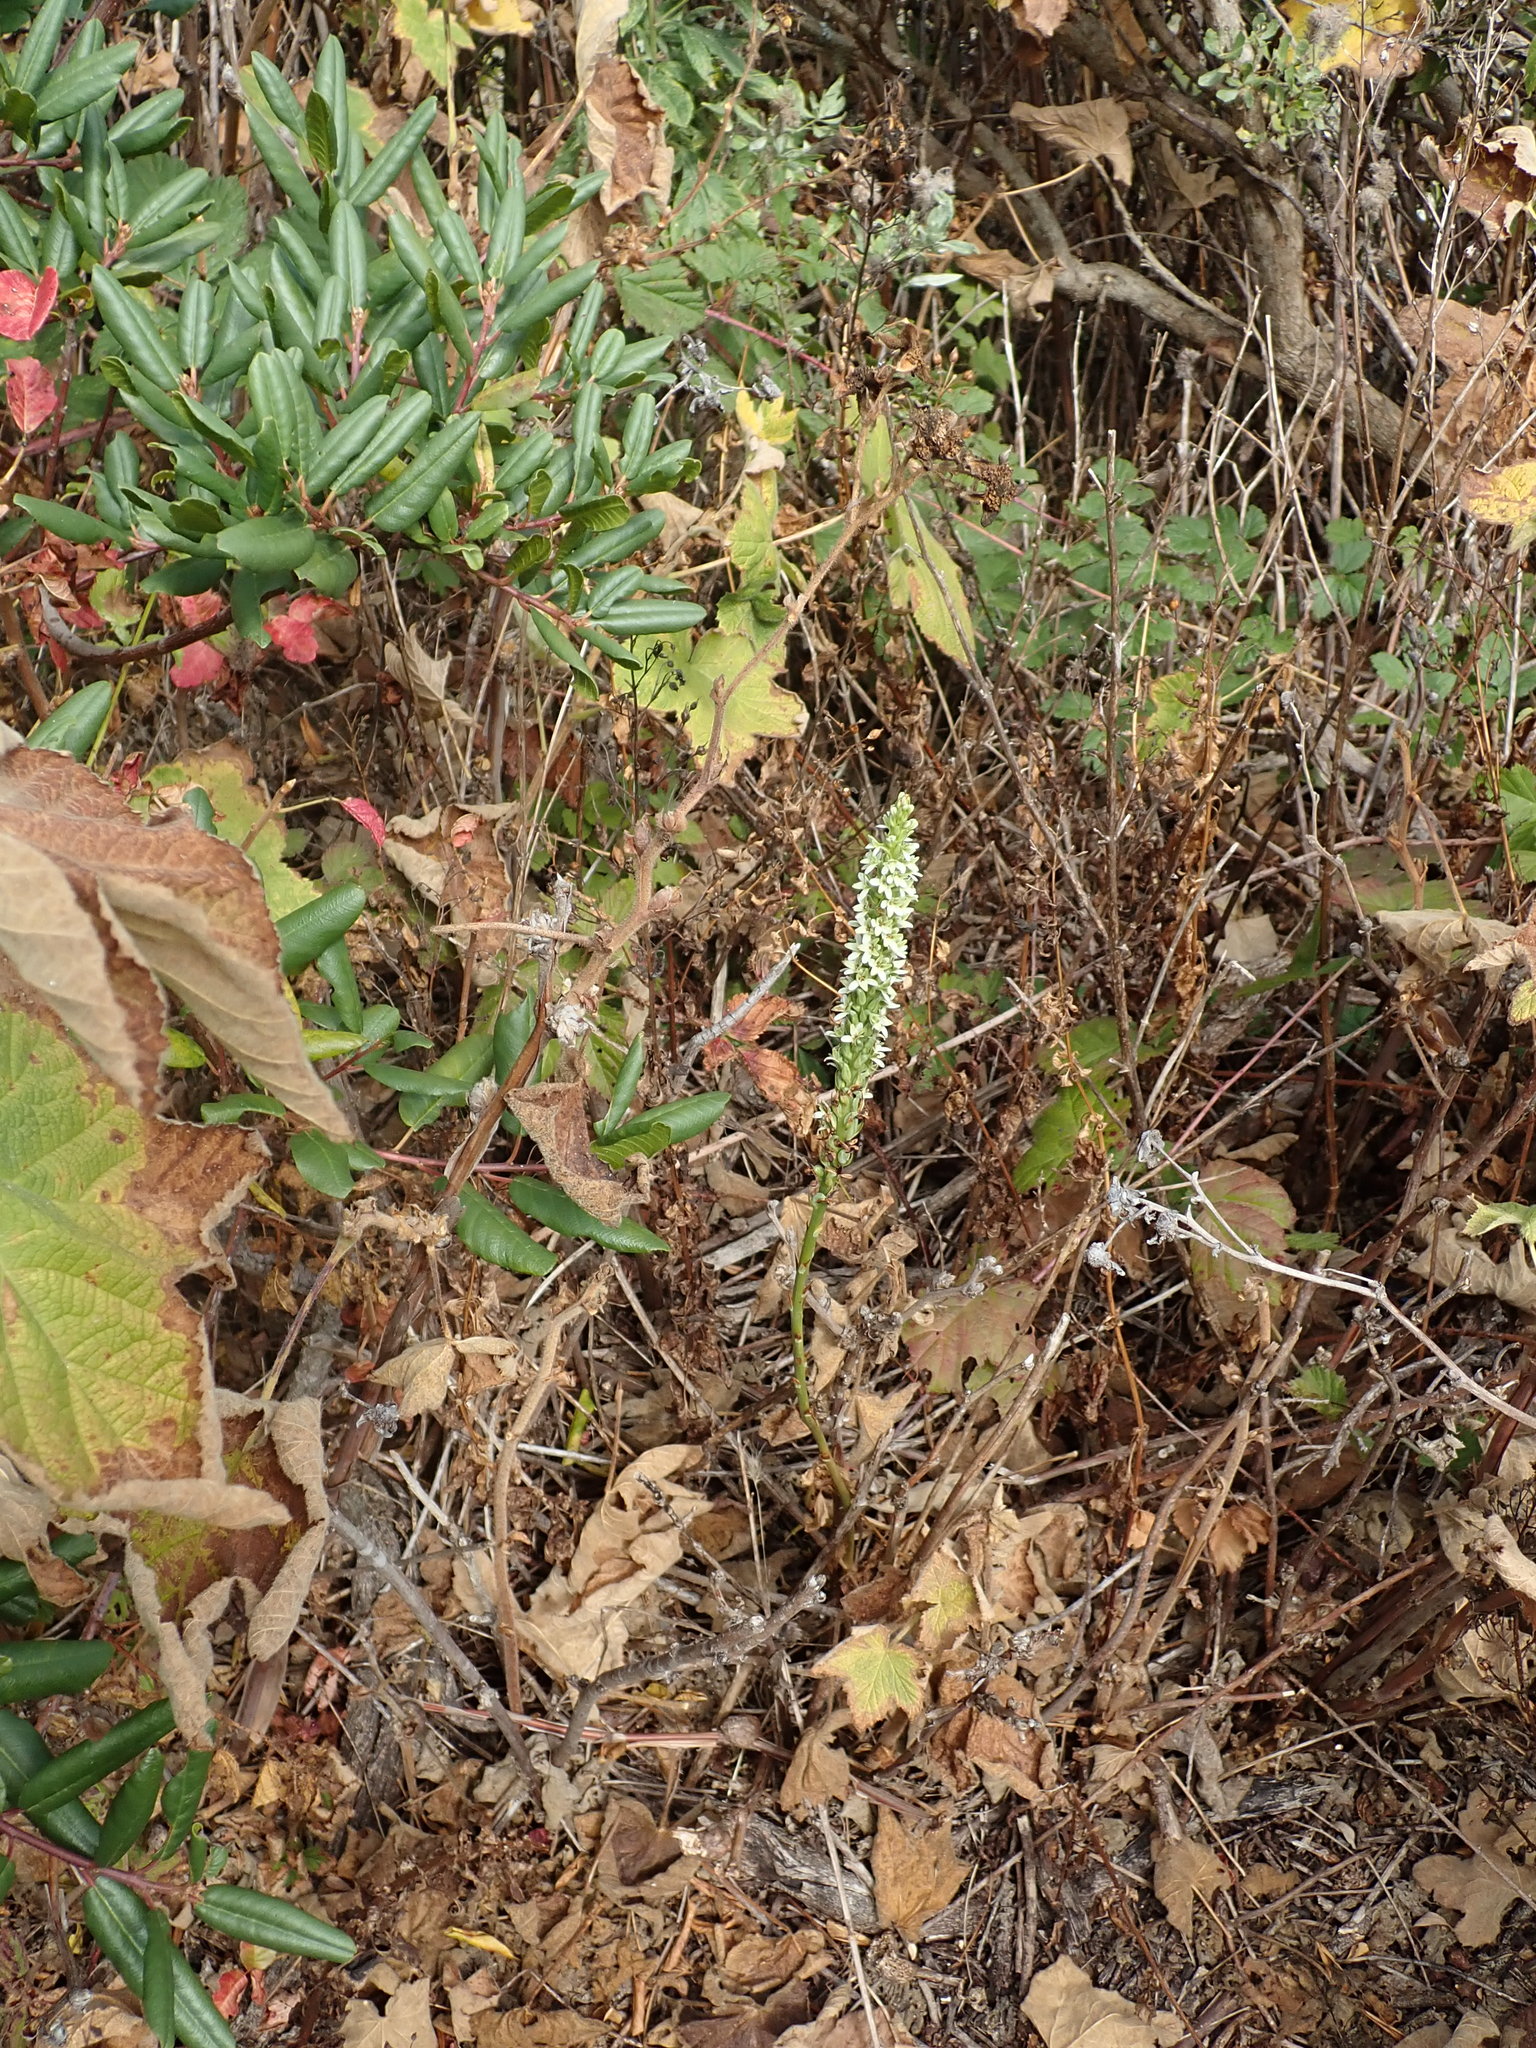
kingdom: Plantae
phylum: Tracheophyta
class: Liliopsida
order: Asparagales
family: Orchidaceae
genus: Platanthera
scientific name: Platanthera elegans
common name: Coast piperia
